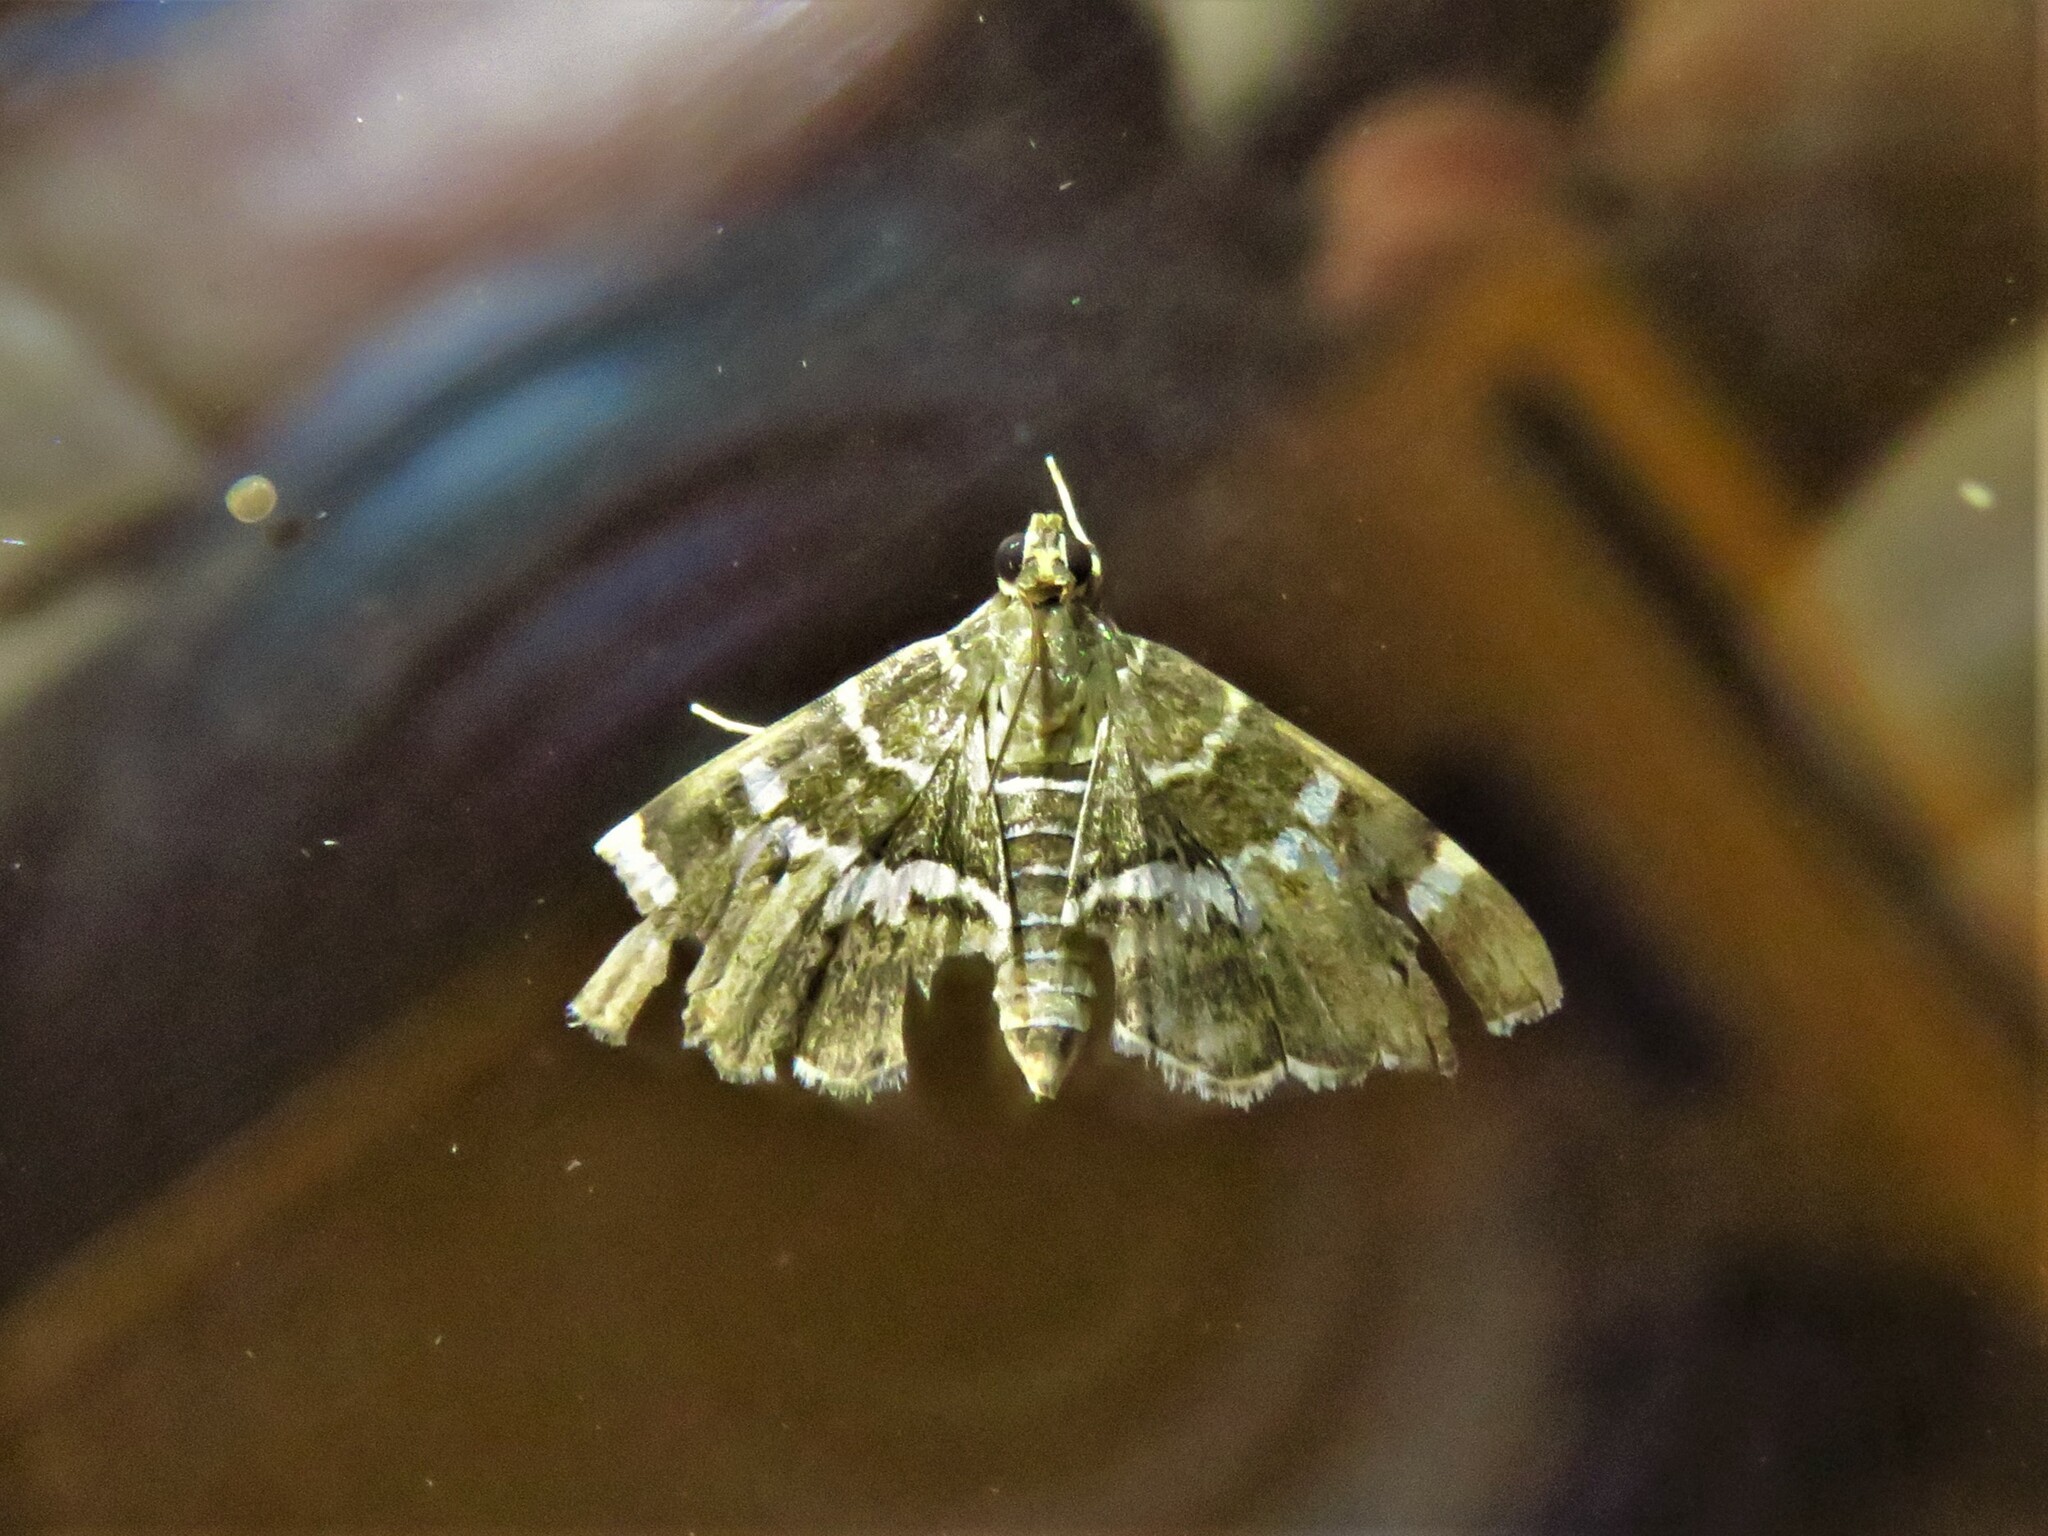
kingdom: Animalia
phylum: Arthropoda
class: Insecta
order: Lepidoptera
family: Crambidae
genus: Hymenia
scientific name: Hymenia perspectalis
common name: Spotted beet webworm
